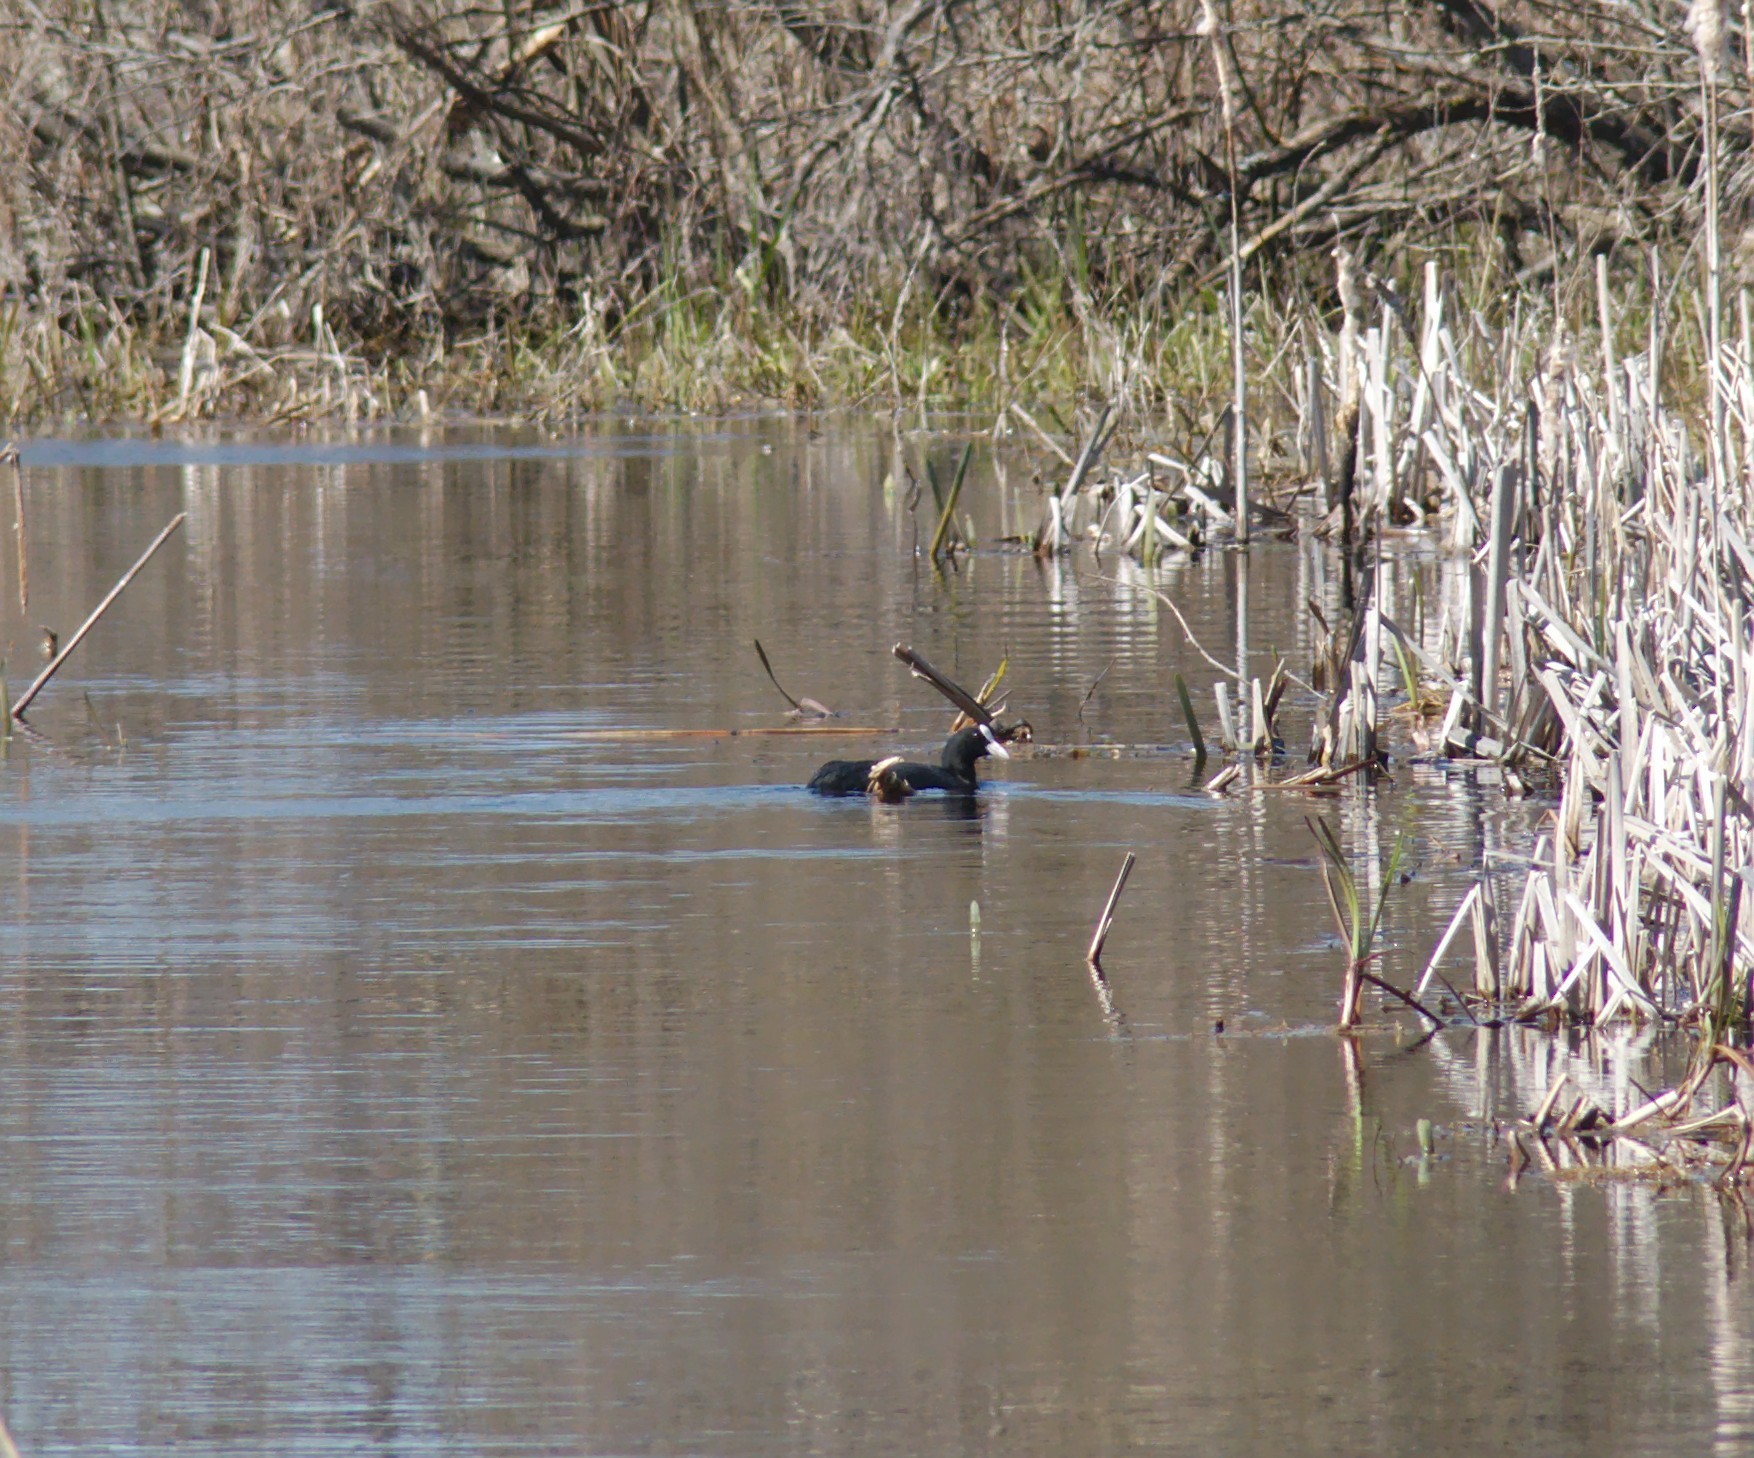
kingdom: Animalia
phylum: Chordata
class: Aves
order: Gruiformes
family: Rallidae
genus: Fulica
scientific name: Fulica atra
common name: Eurasian coot
